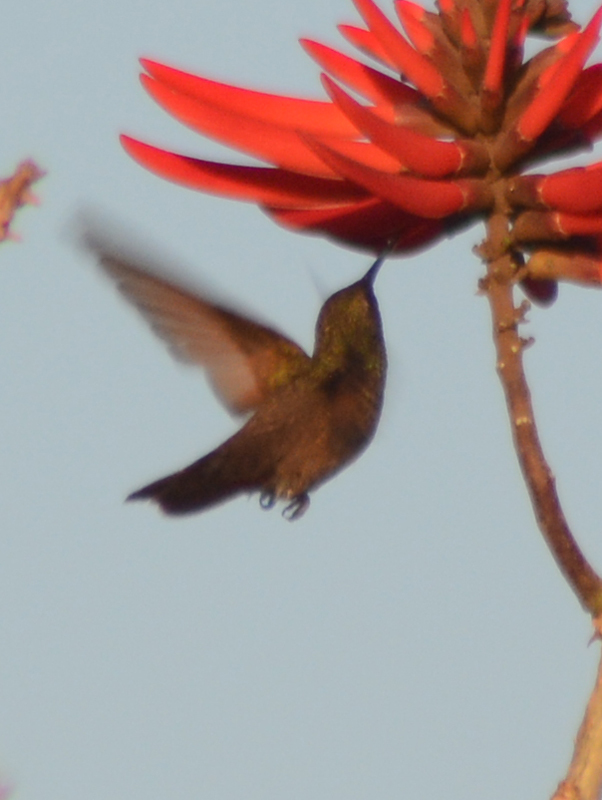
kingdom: Animalia
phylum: Chordata
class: Aves
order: Apodiformes
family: Trochilidae
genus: Saucerottia
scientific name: Saucerottia beryllina
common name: Berylline hummingbird
